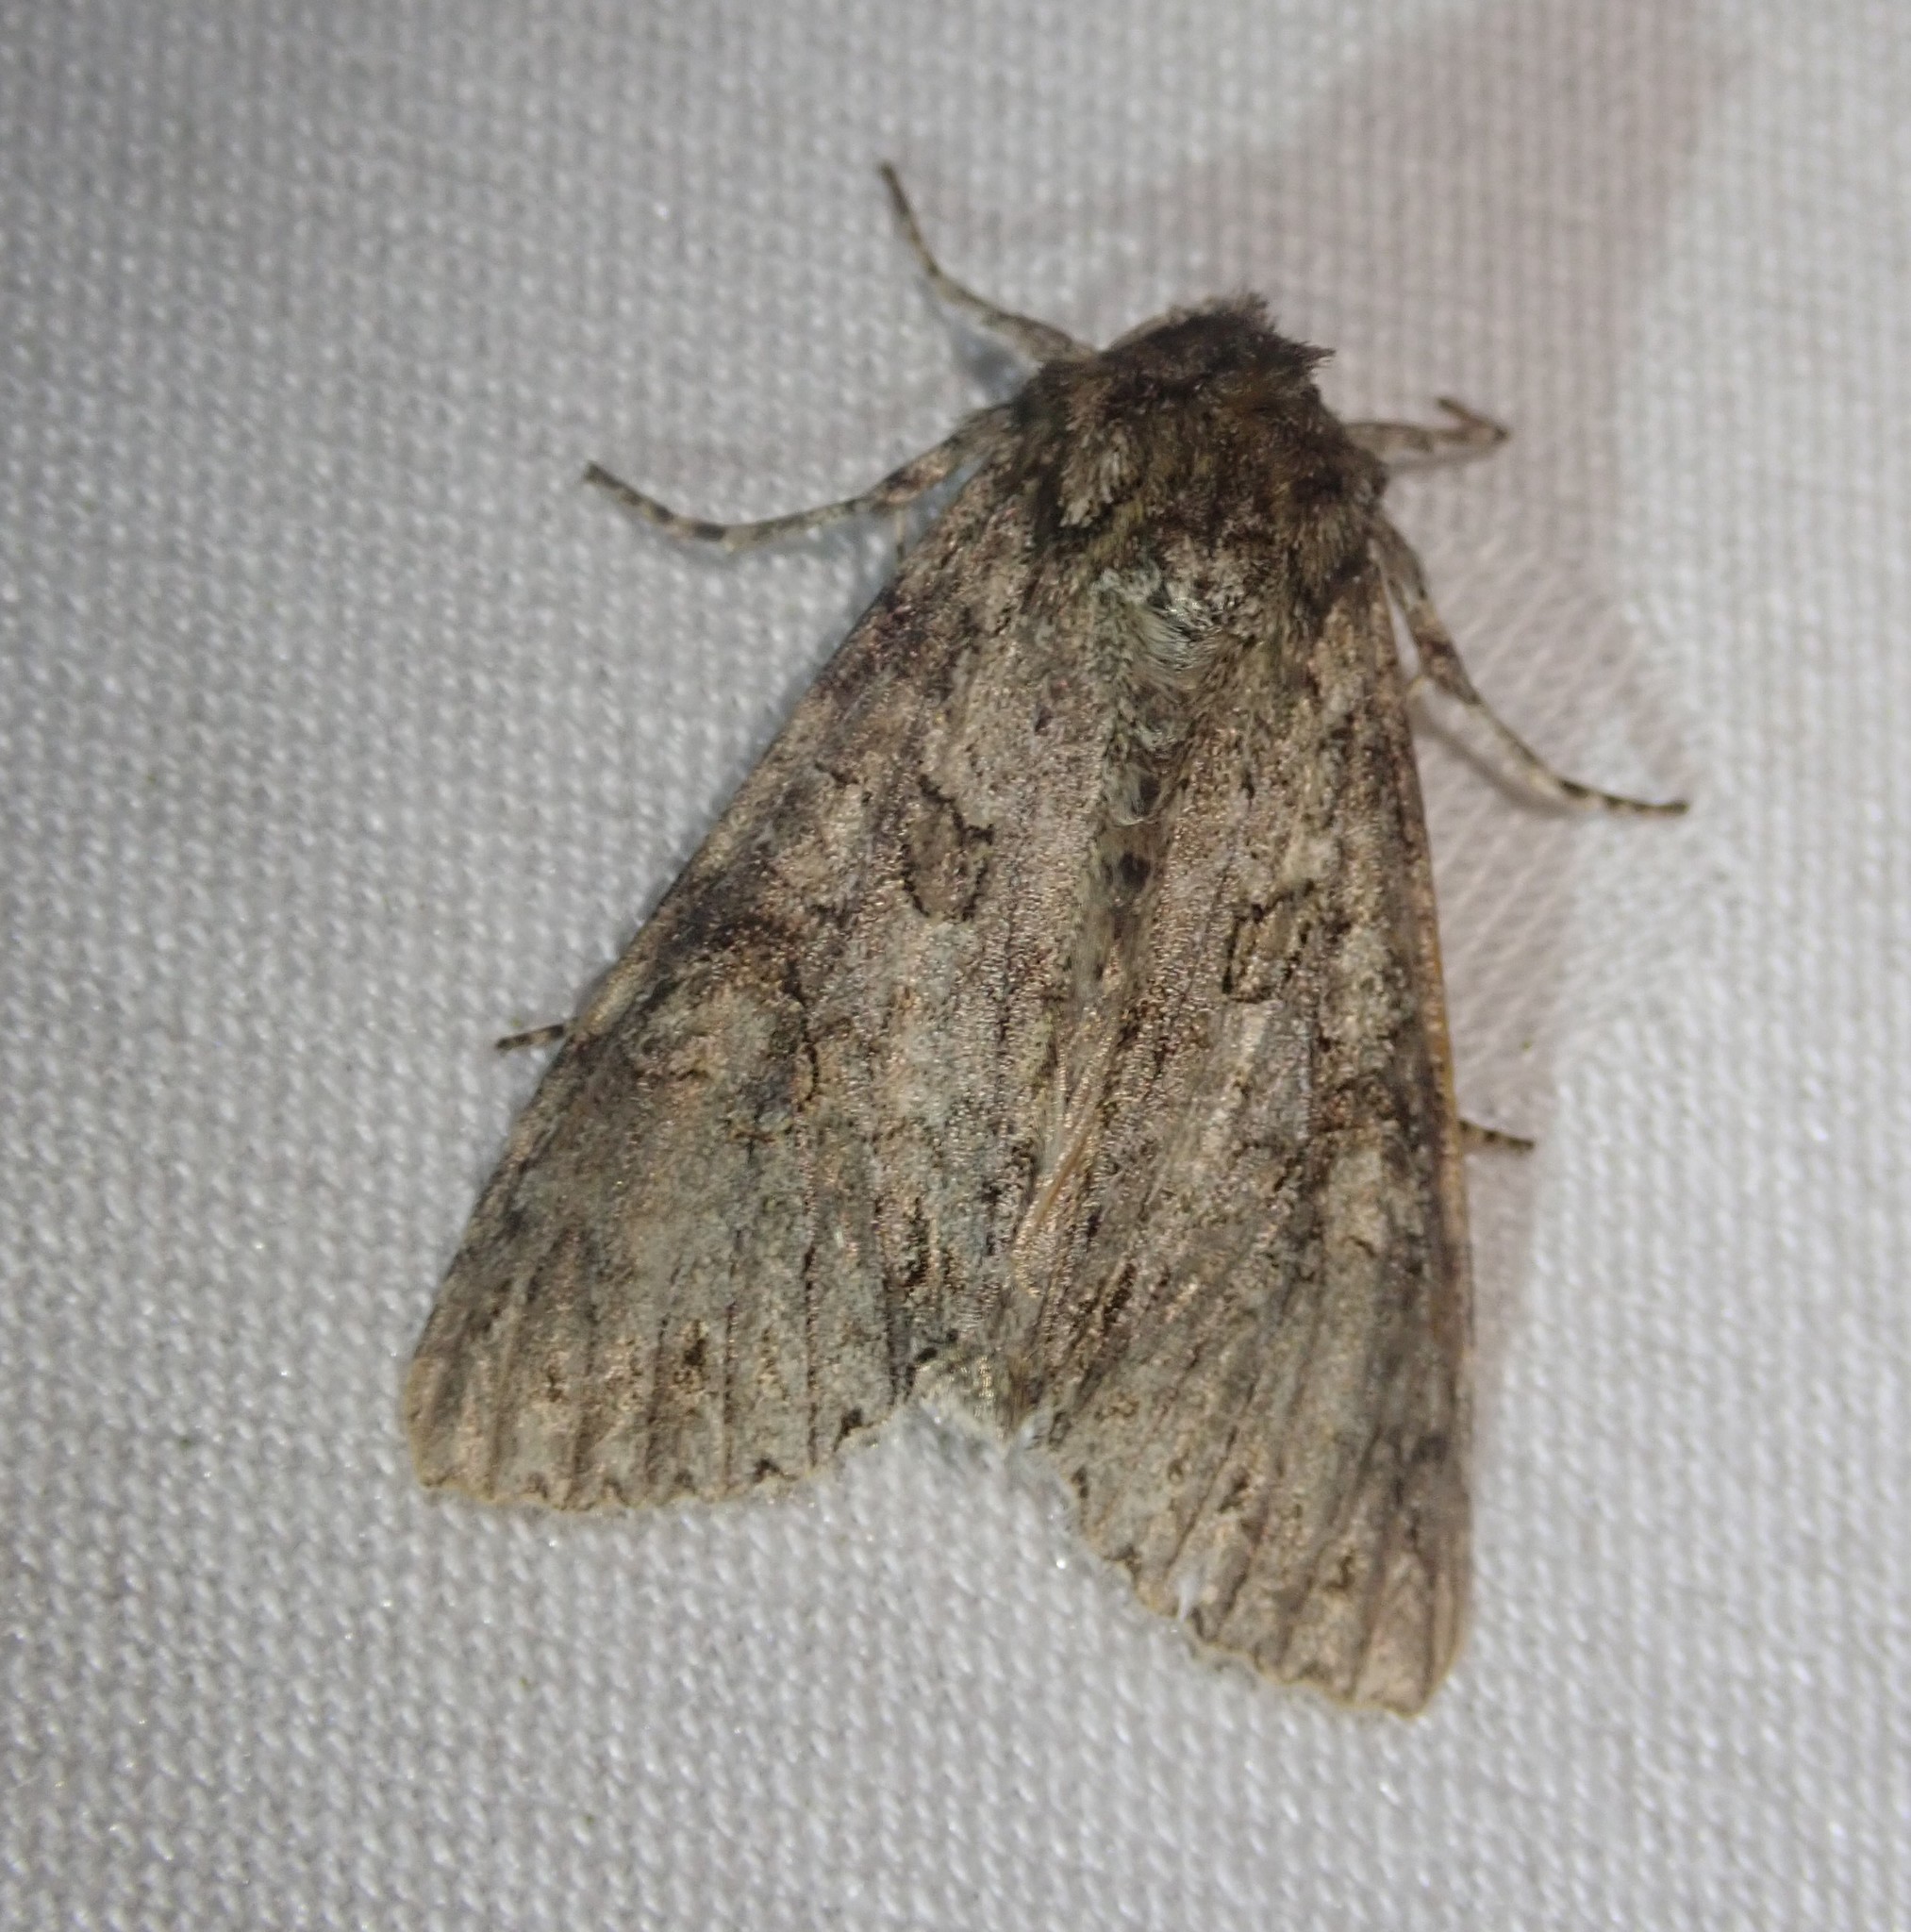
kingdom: Animalia
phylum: Arthropoda
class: Insecta
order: Lepidoptera
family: Noctuidae
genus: Polia
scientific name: Polia nebulosa
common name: Grey arches
